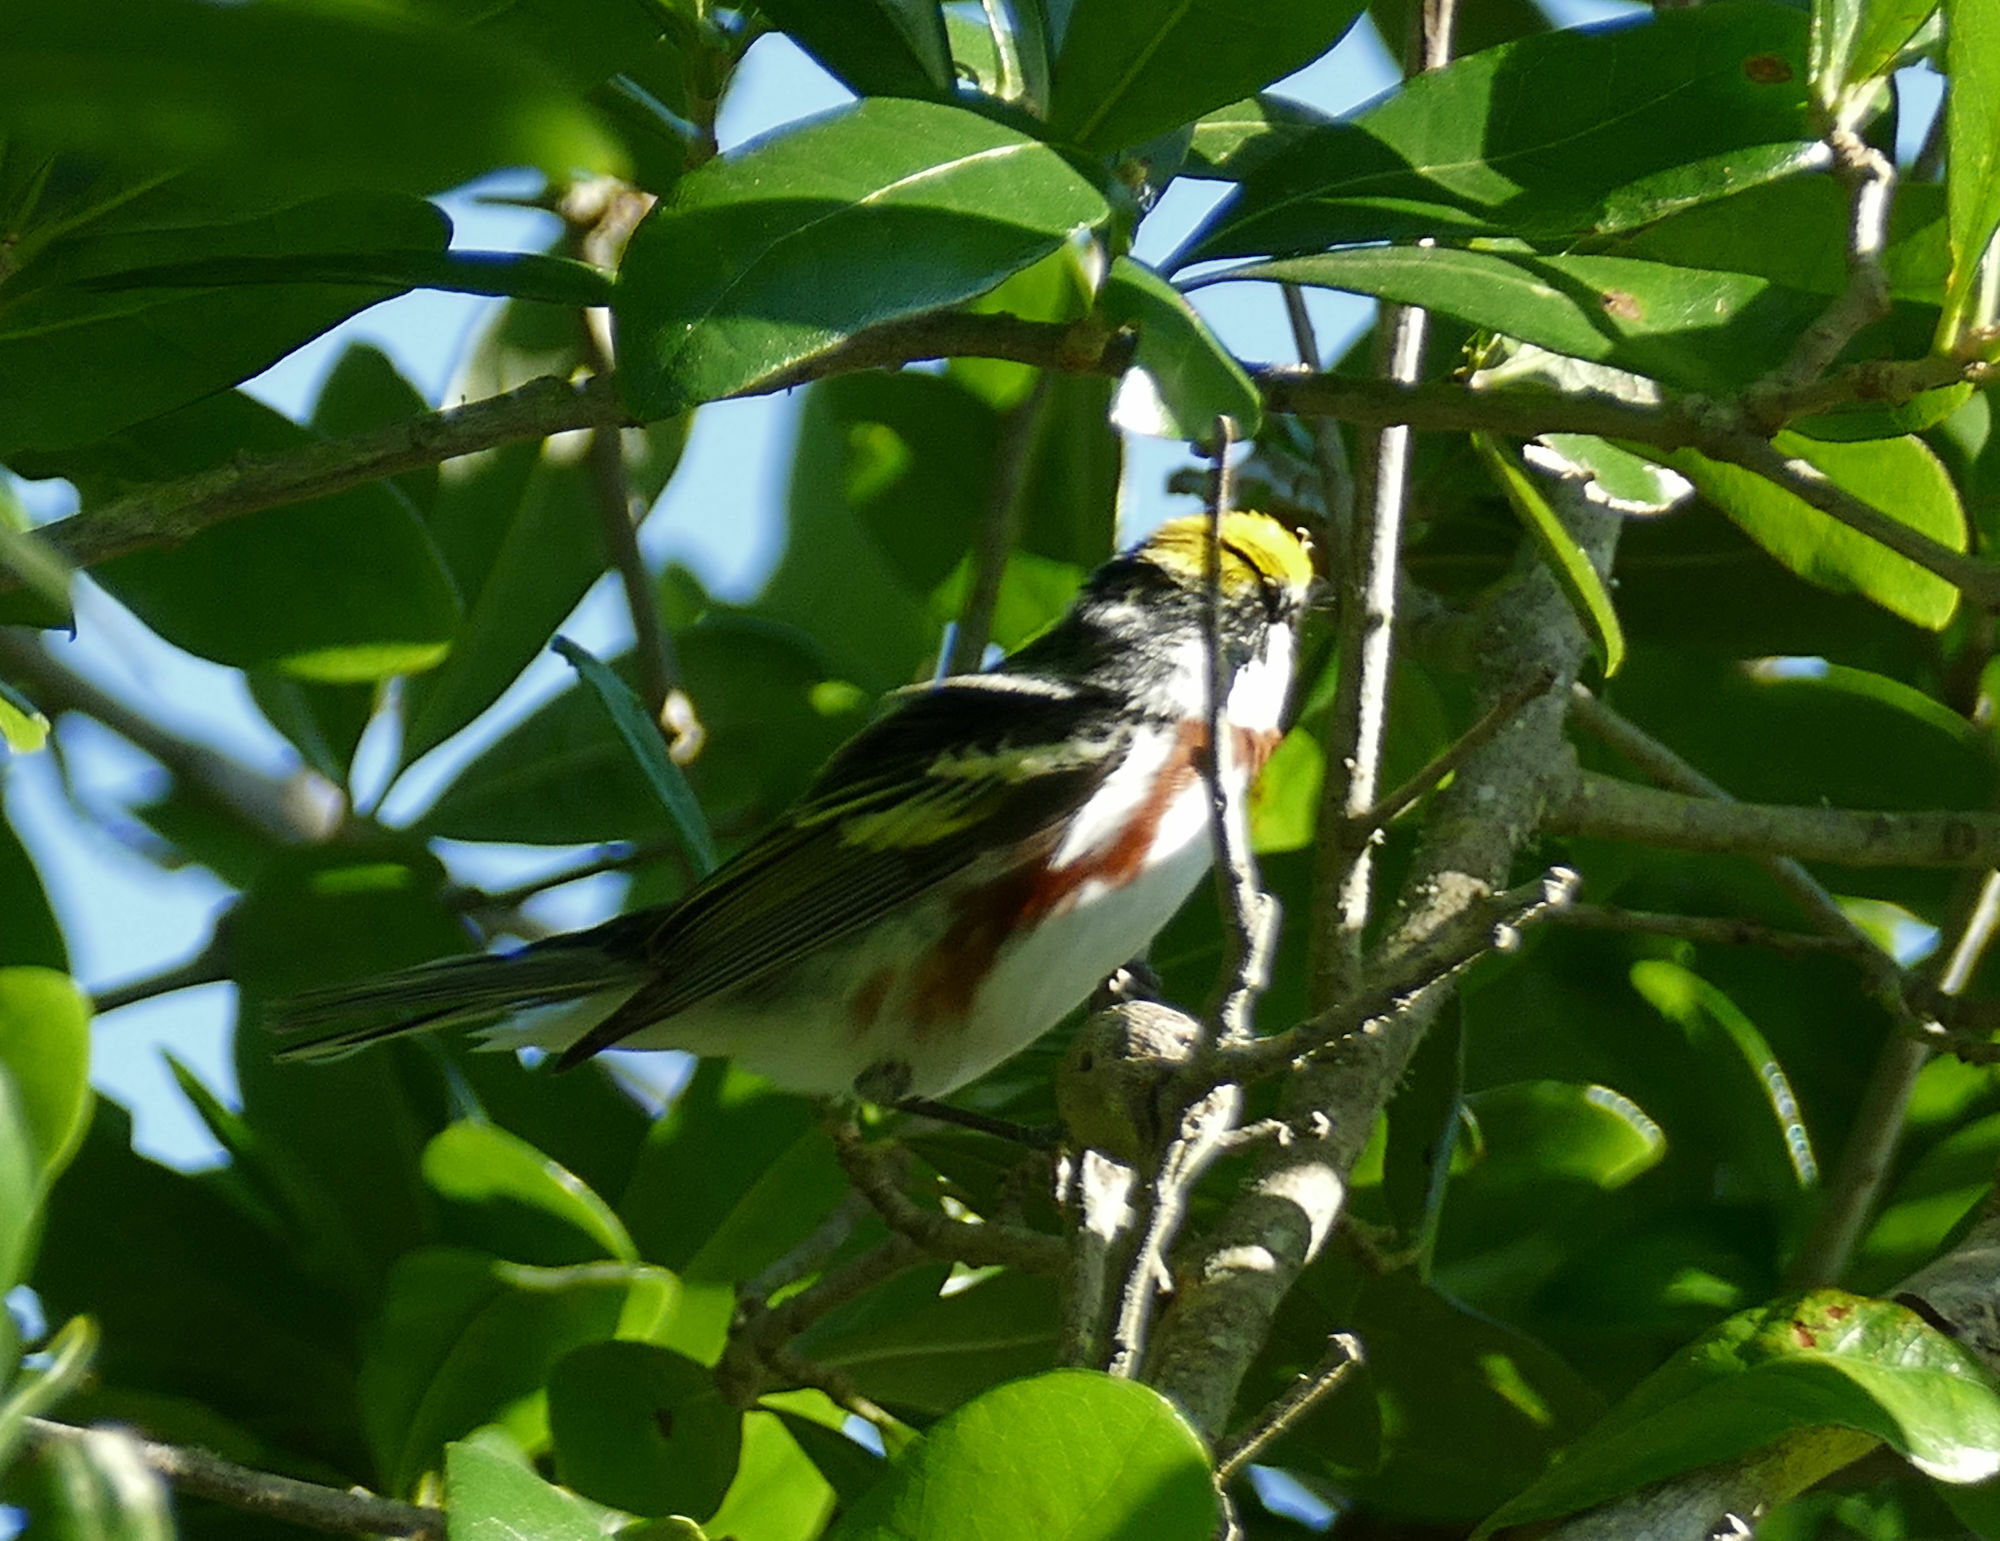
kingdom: Animalia
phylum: Chordata
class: Aves
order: Passeriformes
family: Parulidae
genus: Setophaga
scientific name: Setophaga pensylvanica
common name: Chestnut-sided warbler
